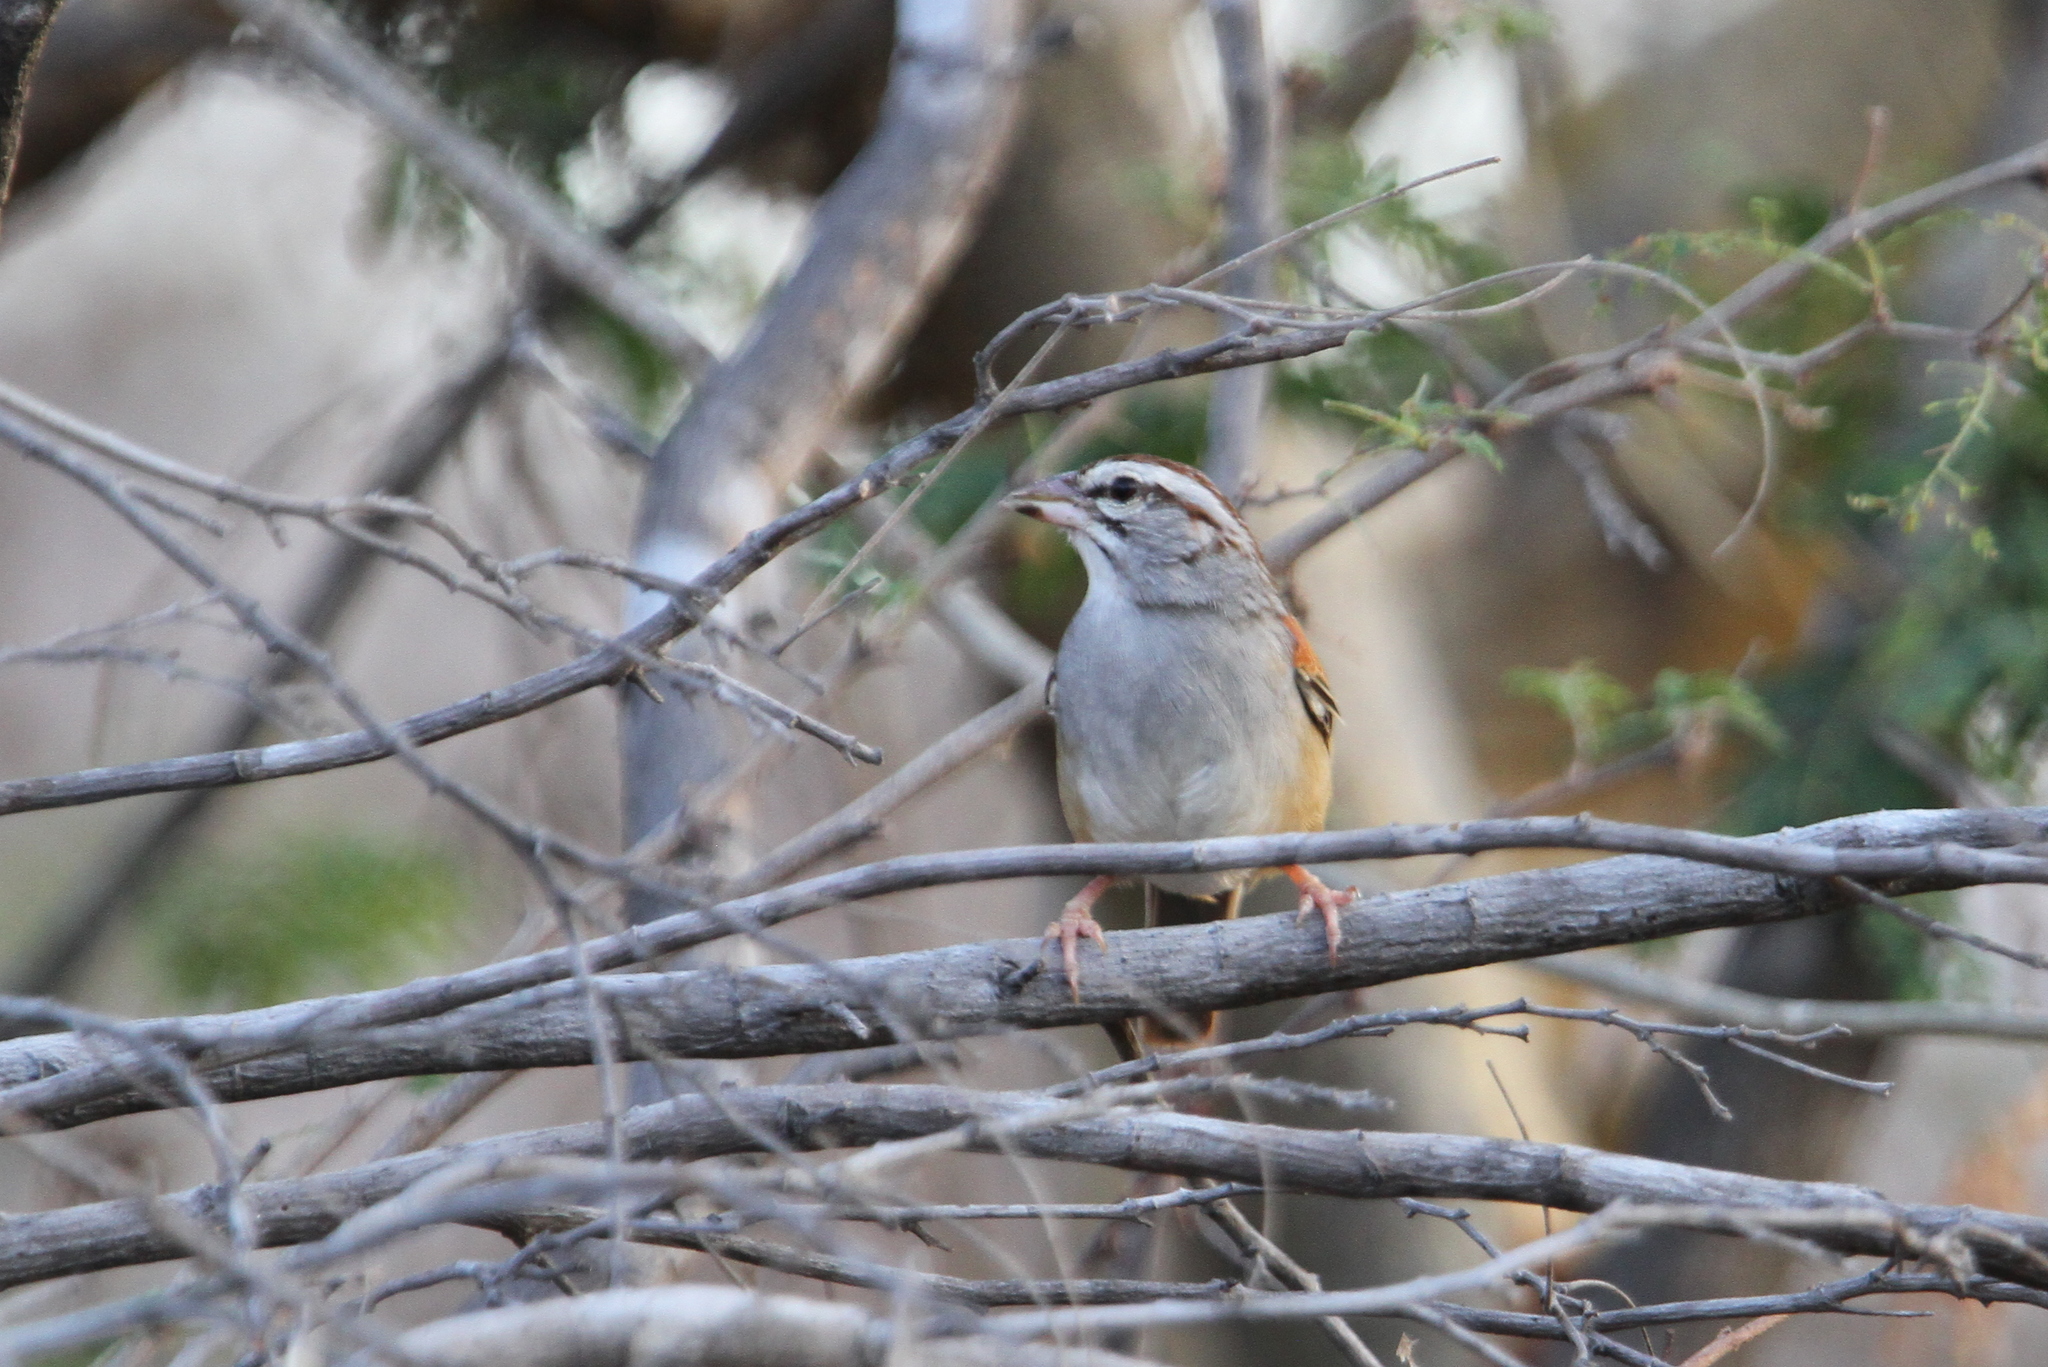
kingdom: Animalia
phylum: Chordata
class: Aves
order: Passeriformes
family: Passerellidae
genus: Peucaea
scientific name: Peucaea sumichrasti
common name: Cinnamon-tailed sparrow
